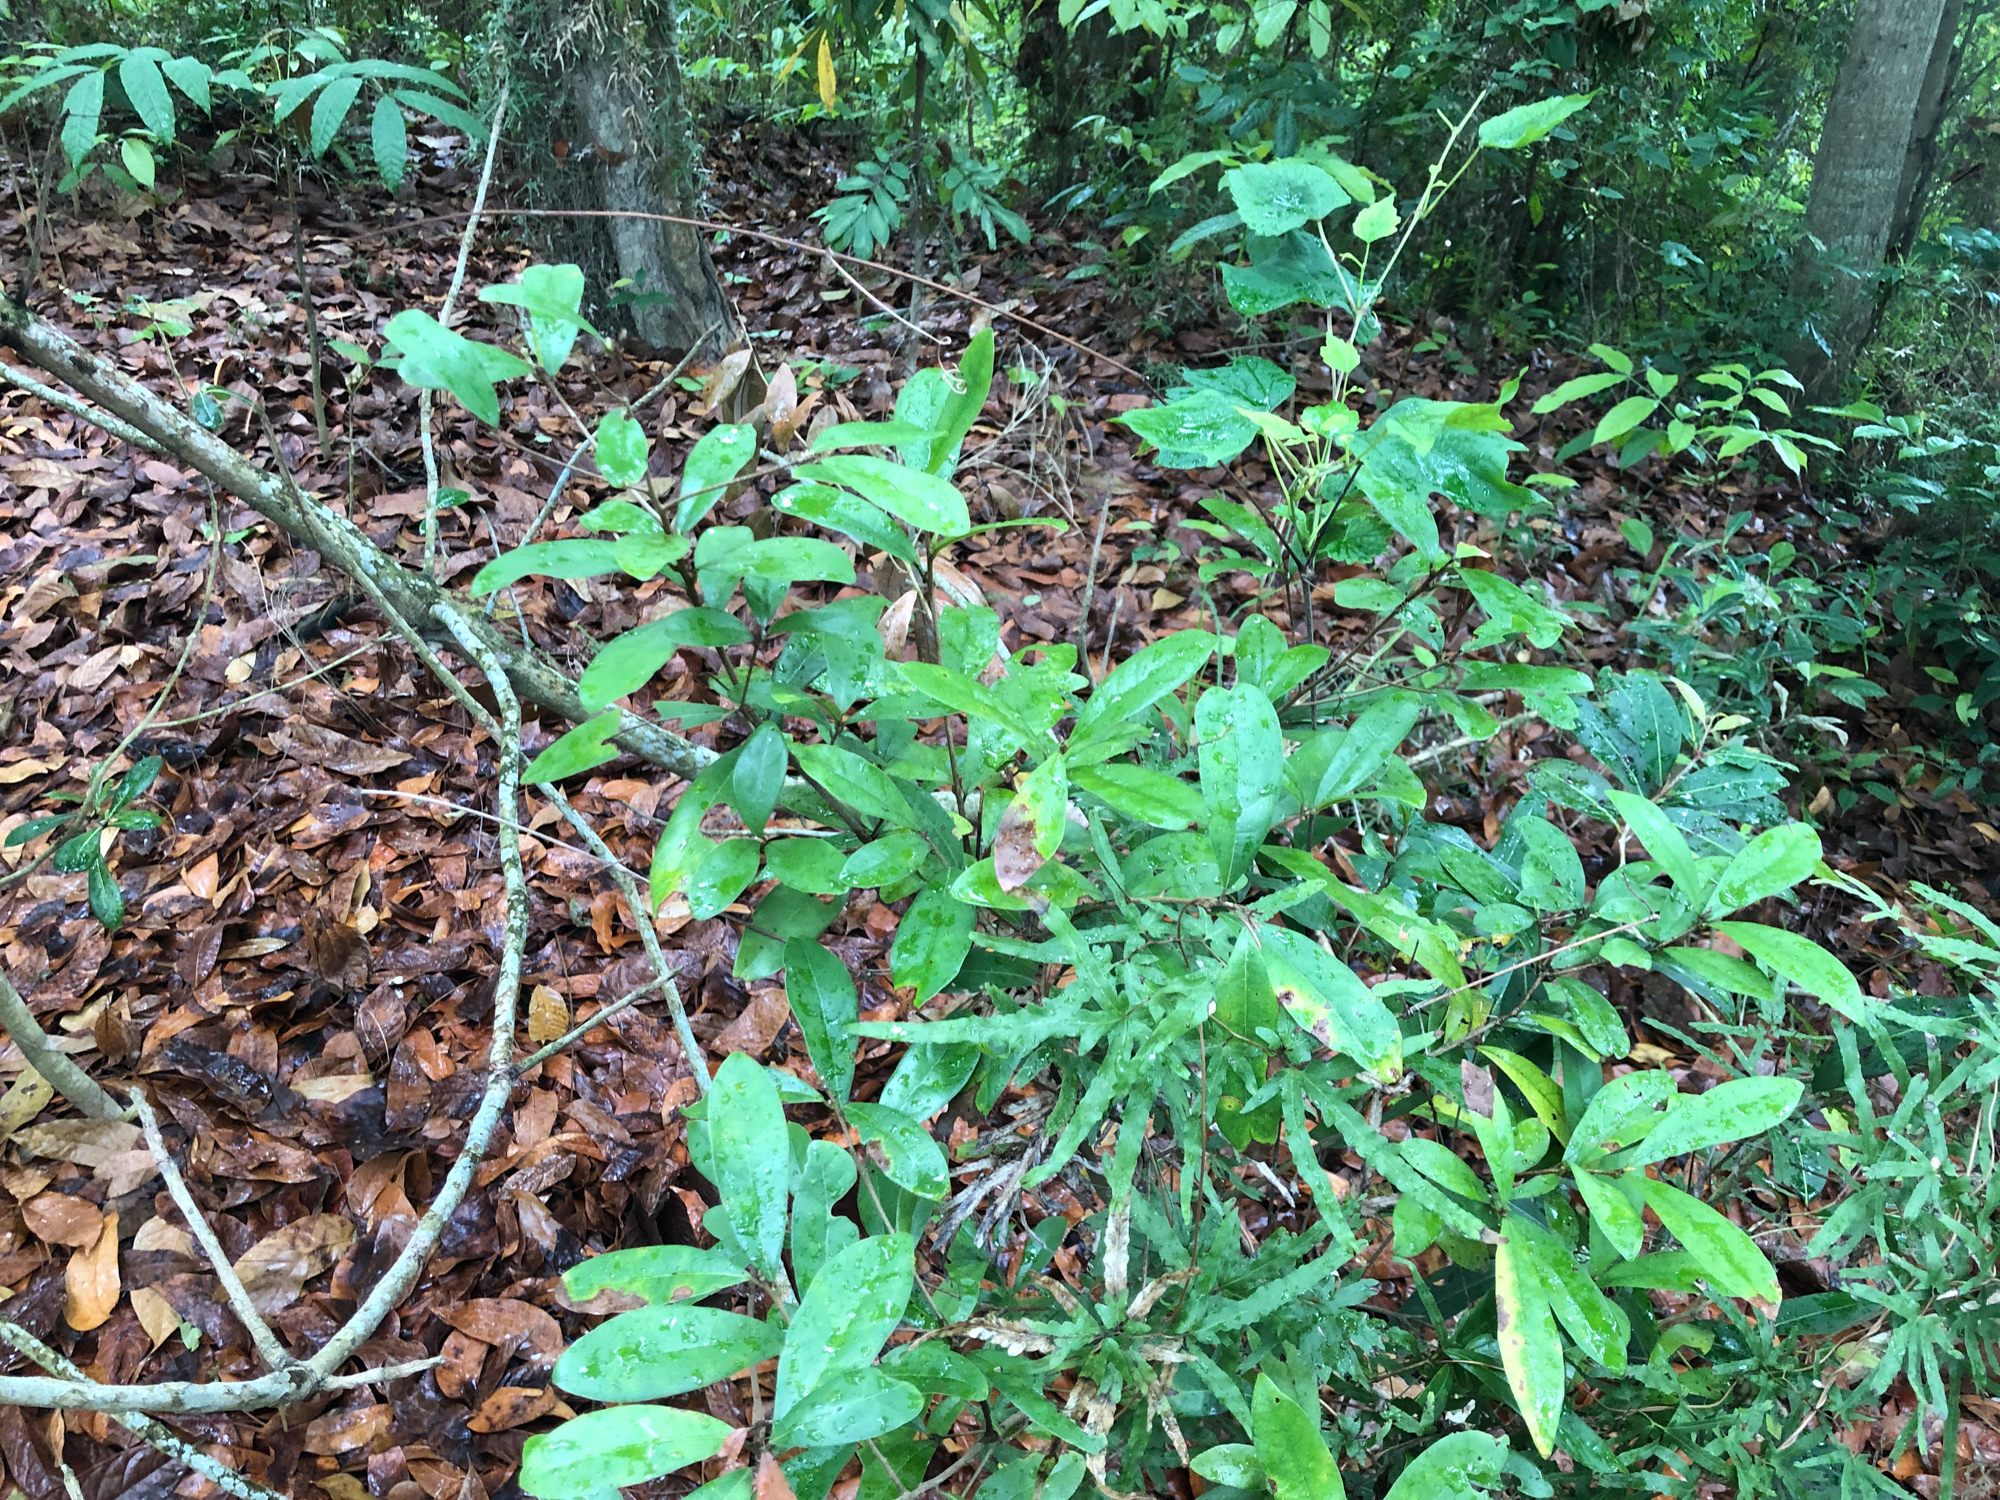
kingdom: Plantae
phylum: Tracheophyta
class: Magnoliopsida
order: Laurales
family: Lauraceae
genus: Litsea
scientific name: Litsea hypophaea
